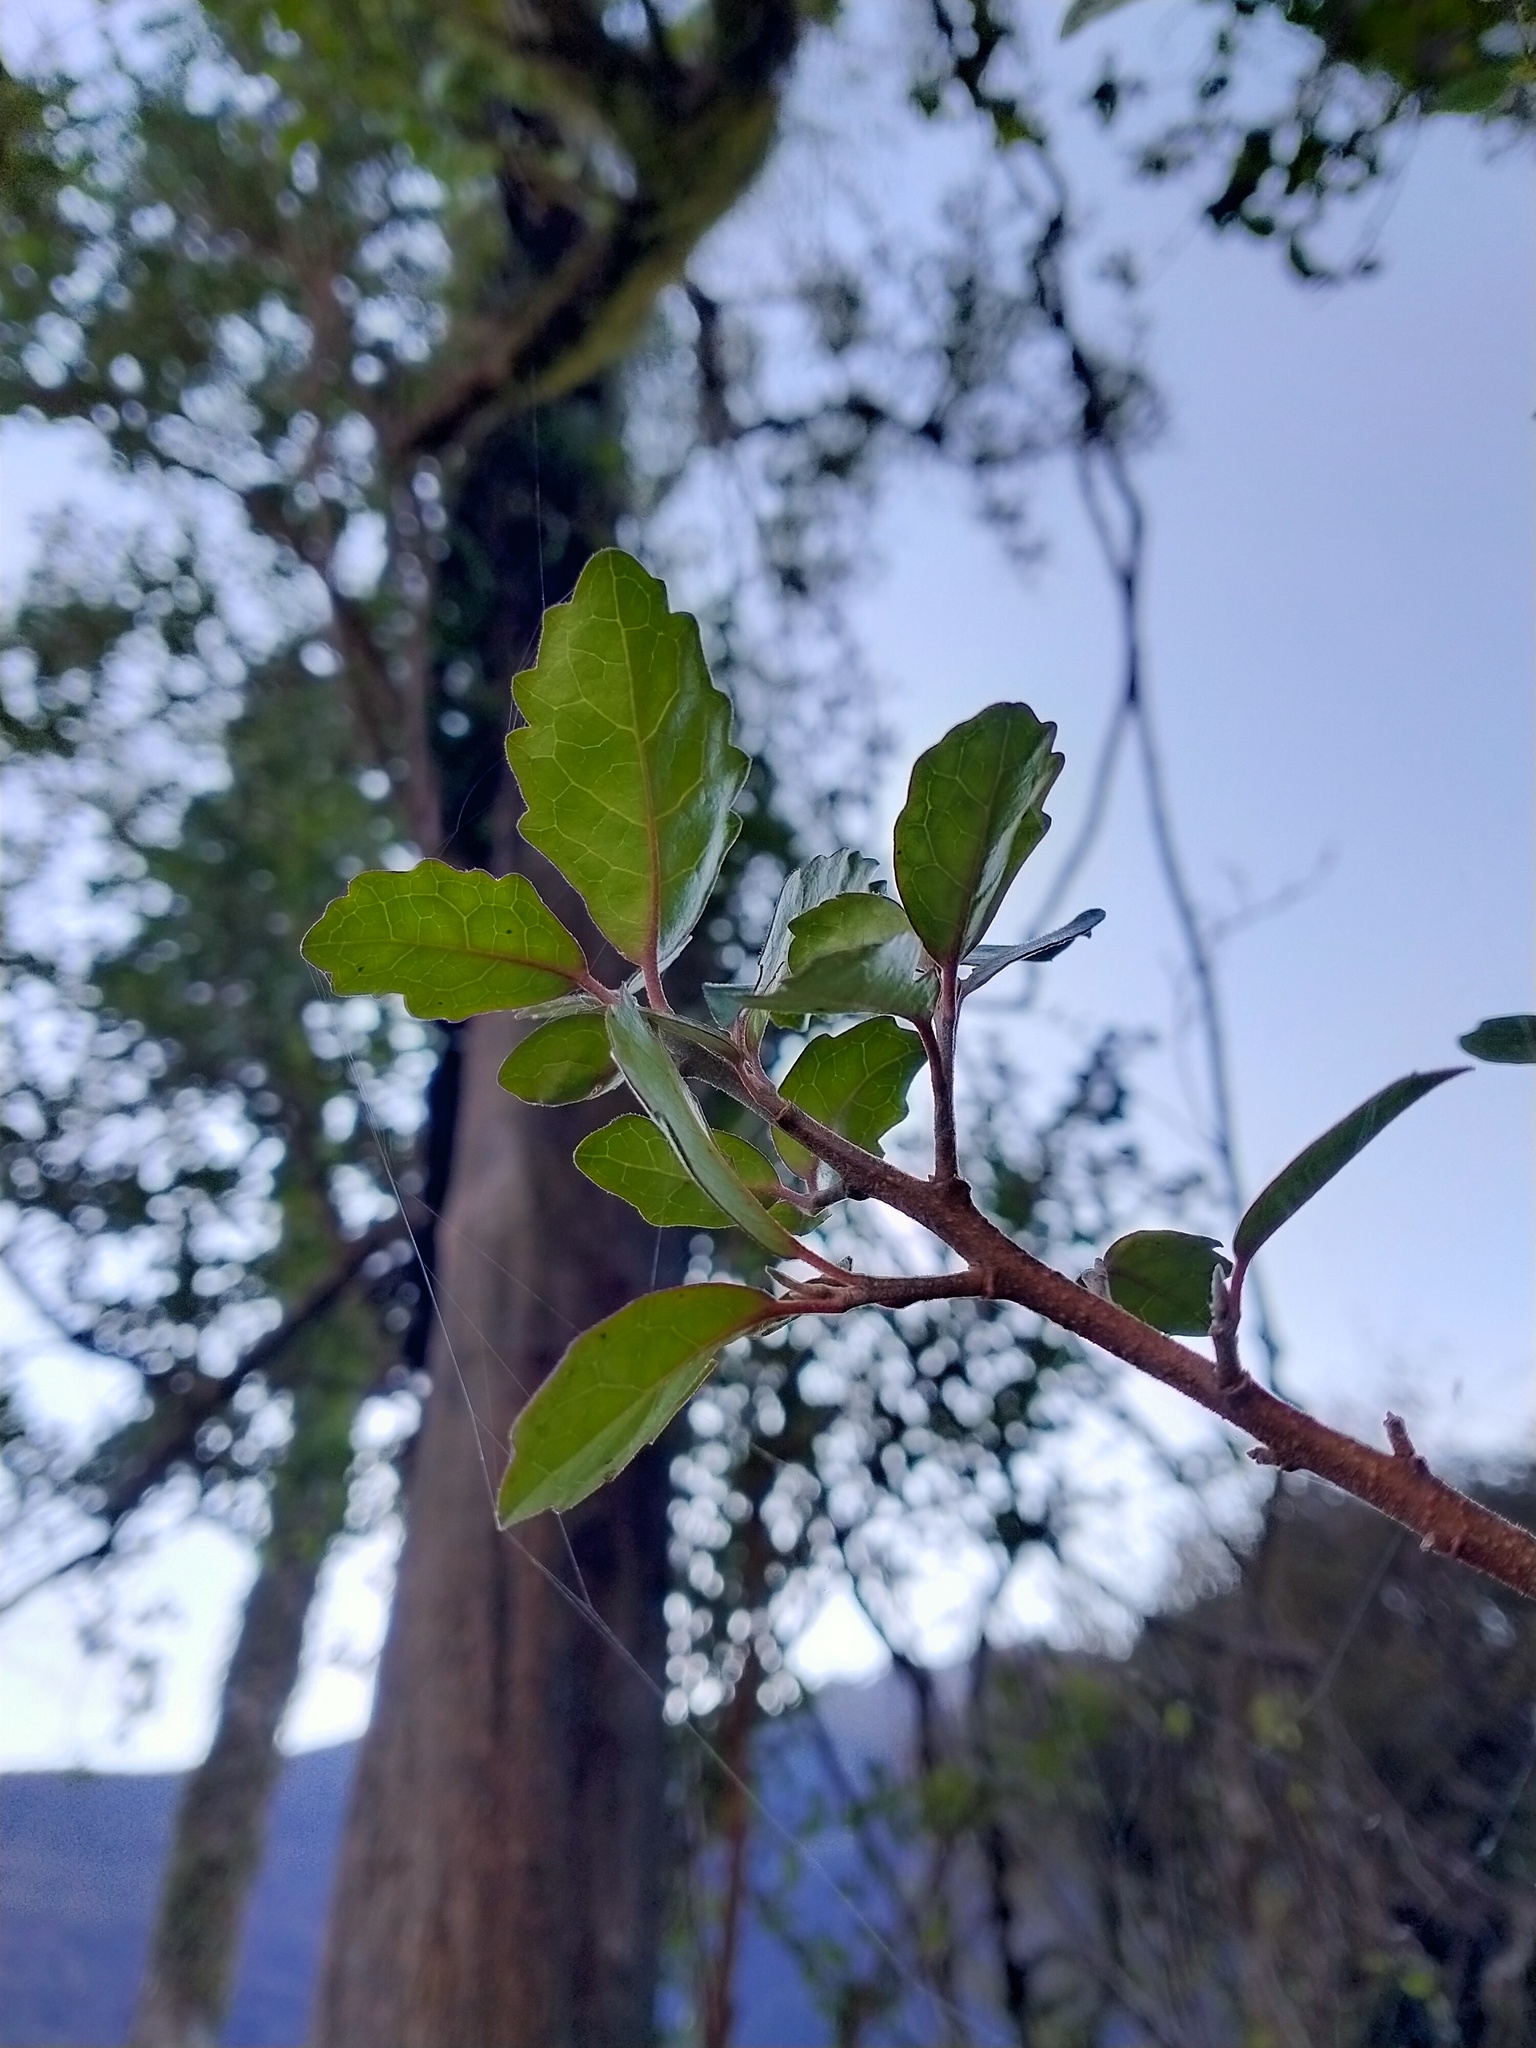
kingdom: Plantae
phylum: Tracheophyta
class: Magnoliopsida
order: Apiales
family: Pennantiaceae
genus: Pennantia
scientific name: Pennantia corymbosa
